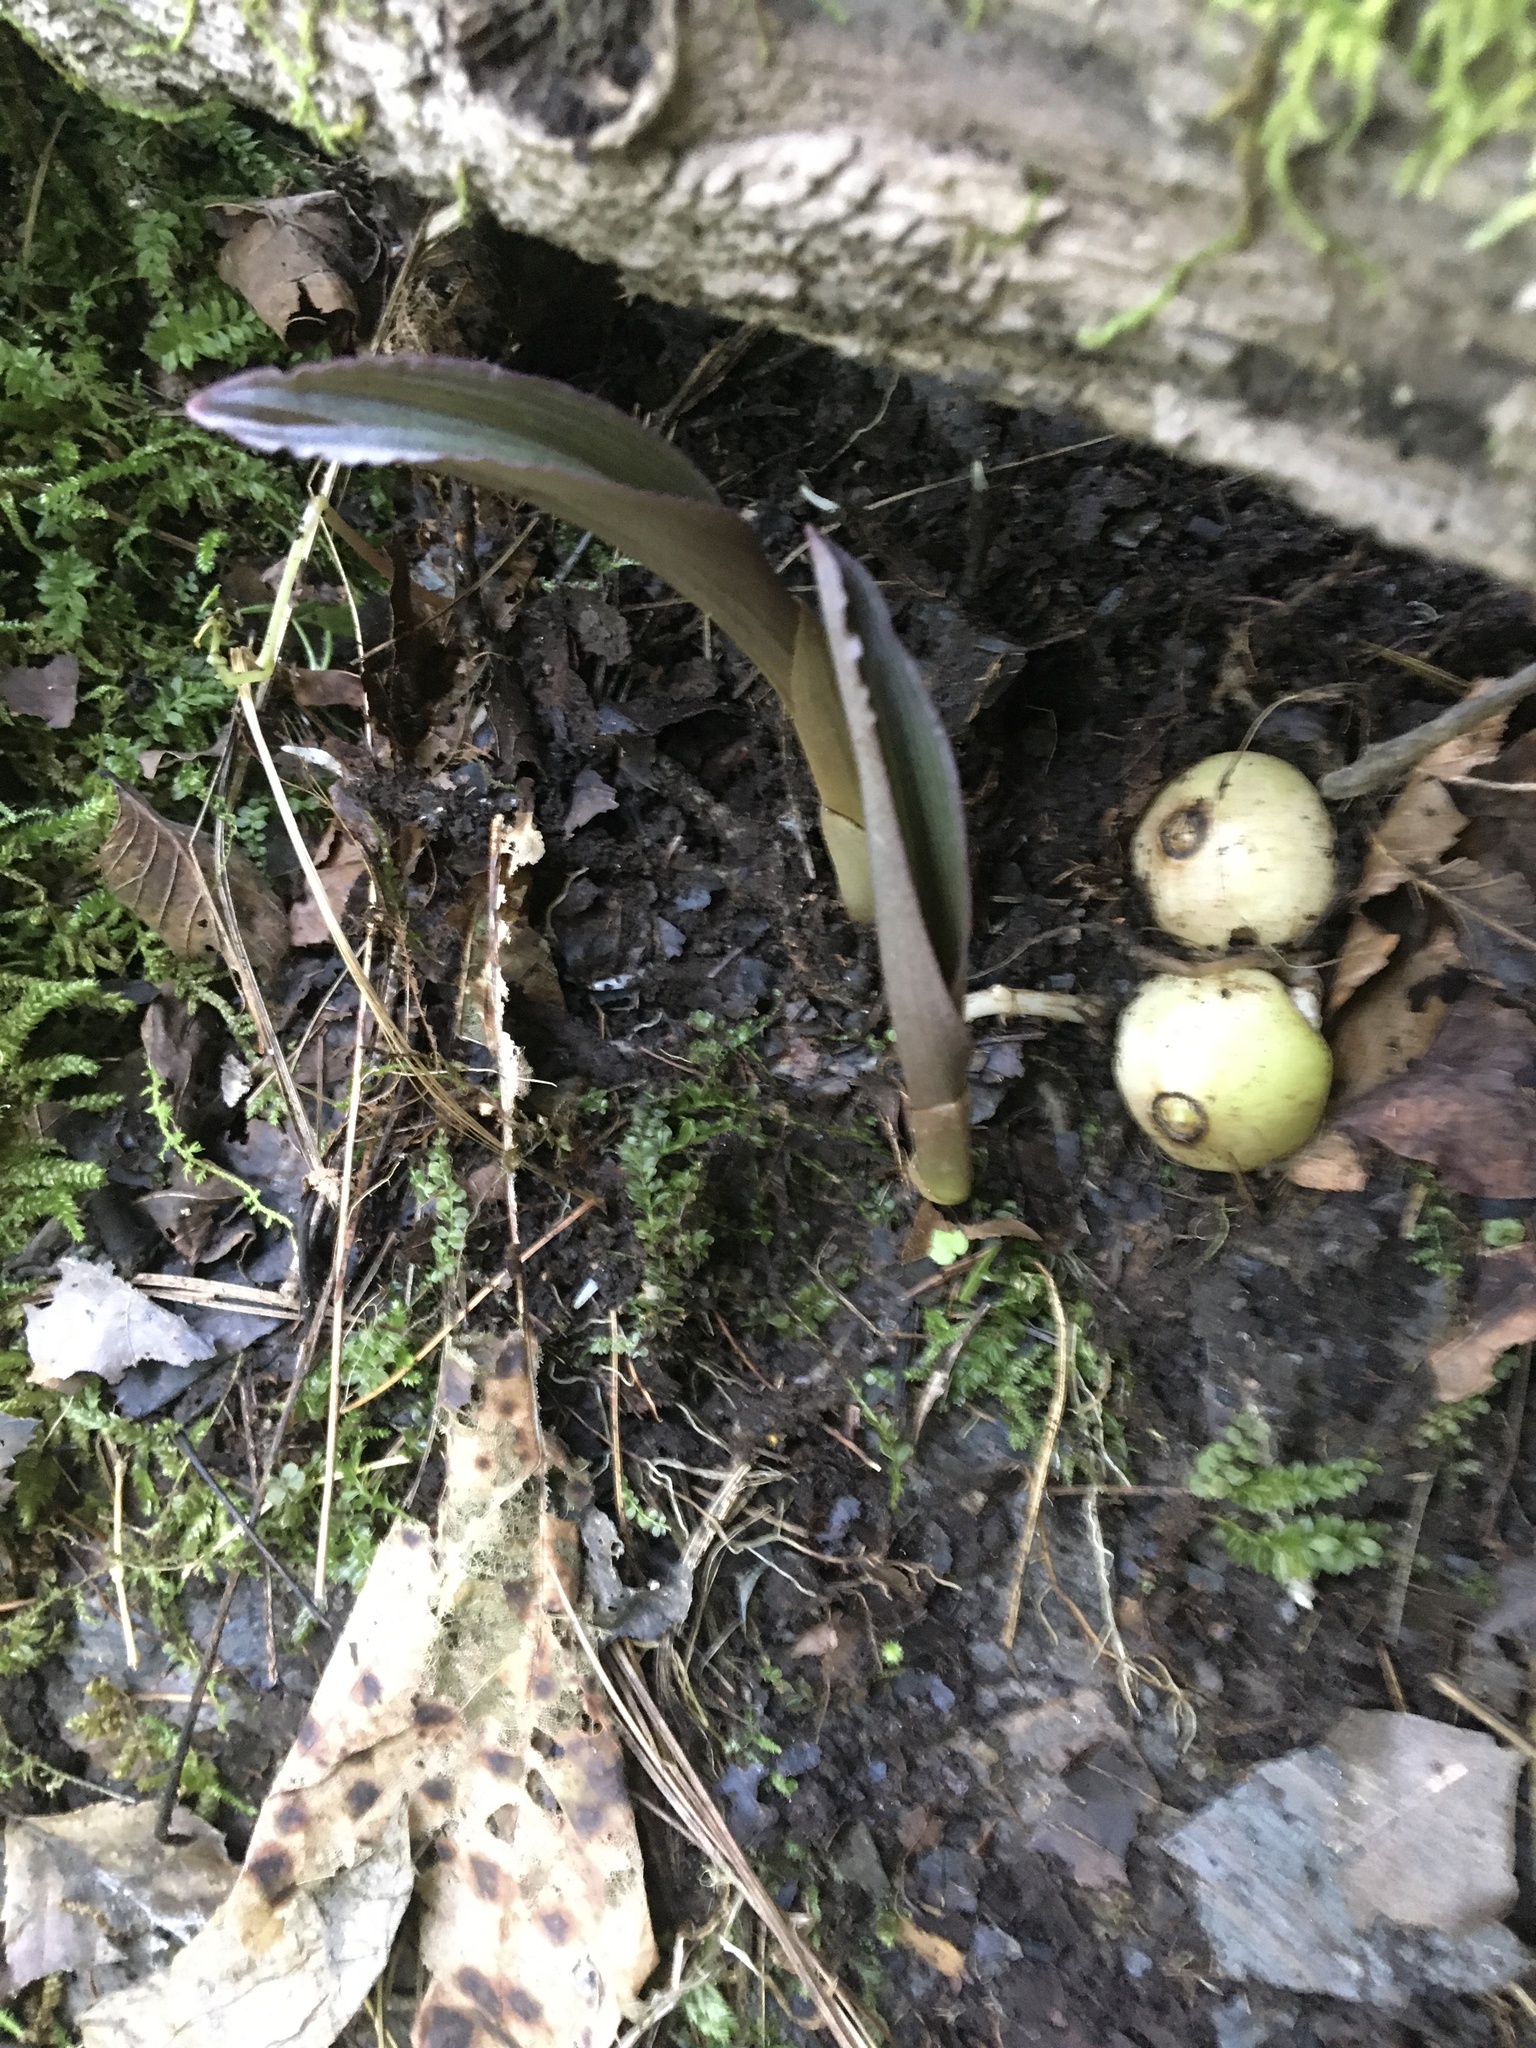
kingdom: Plantae
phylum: Tracheophyta
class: Liliopsida
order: Asparagales
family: Orchidaceae
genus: Aplectrum
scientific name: Aplectrum hyemale
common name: Adam-and-eve
